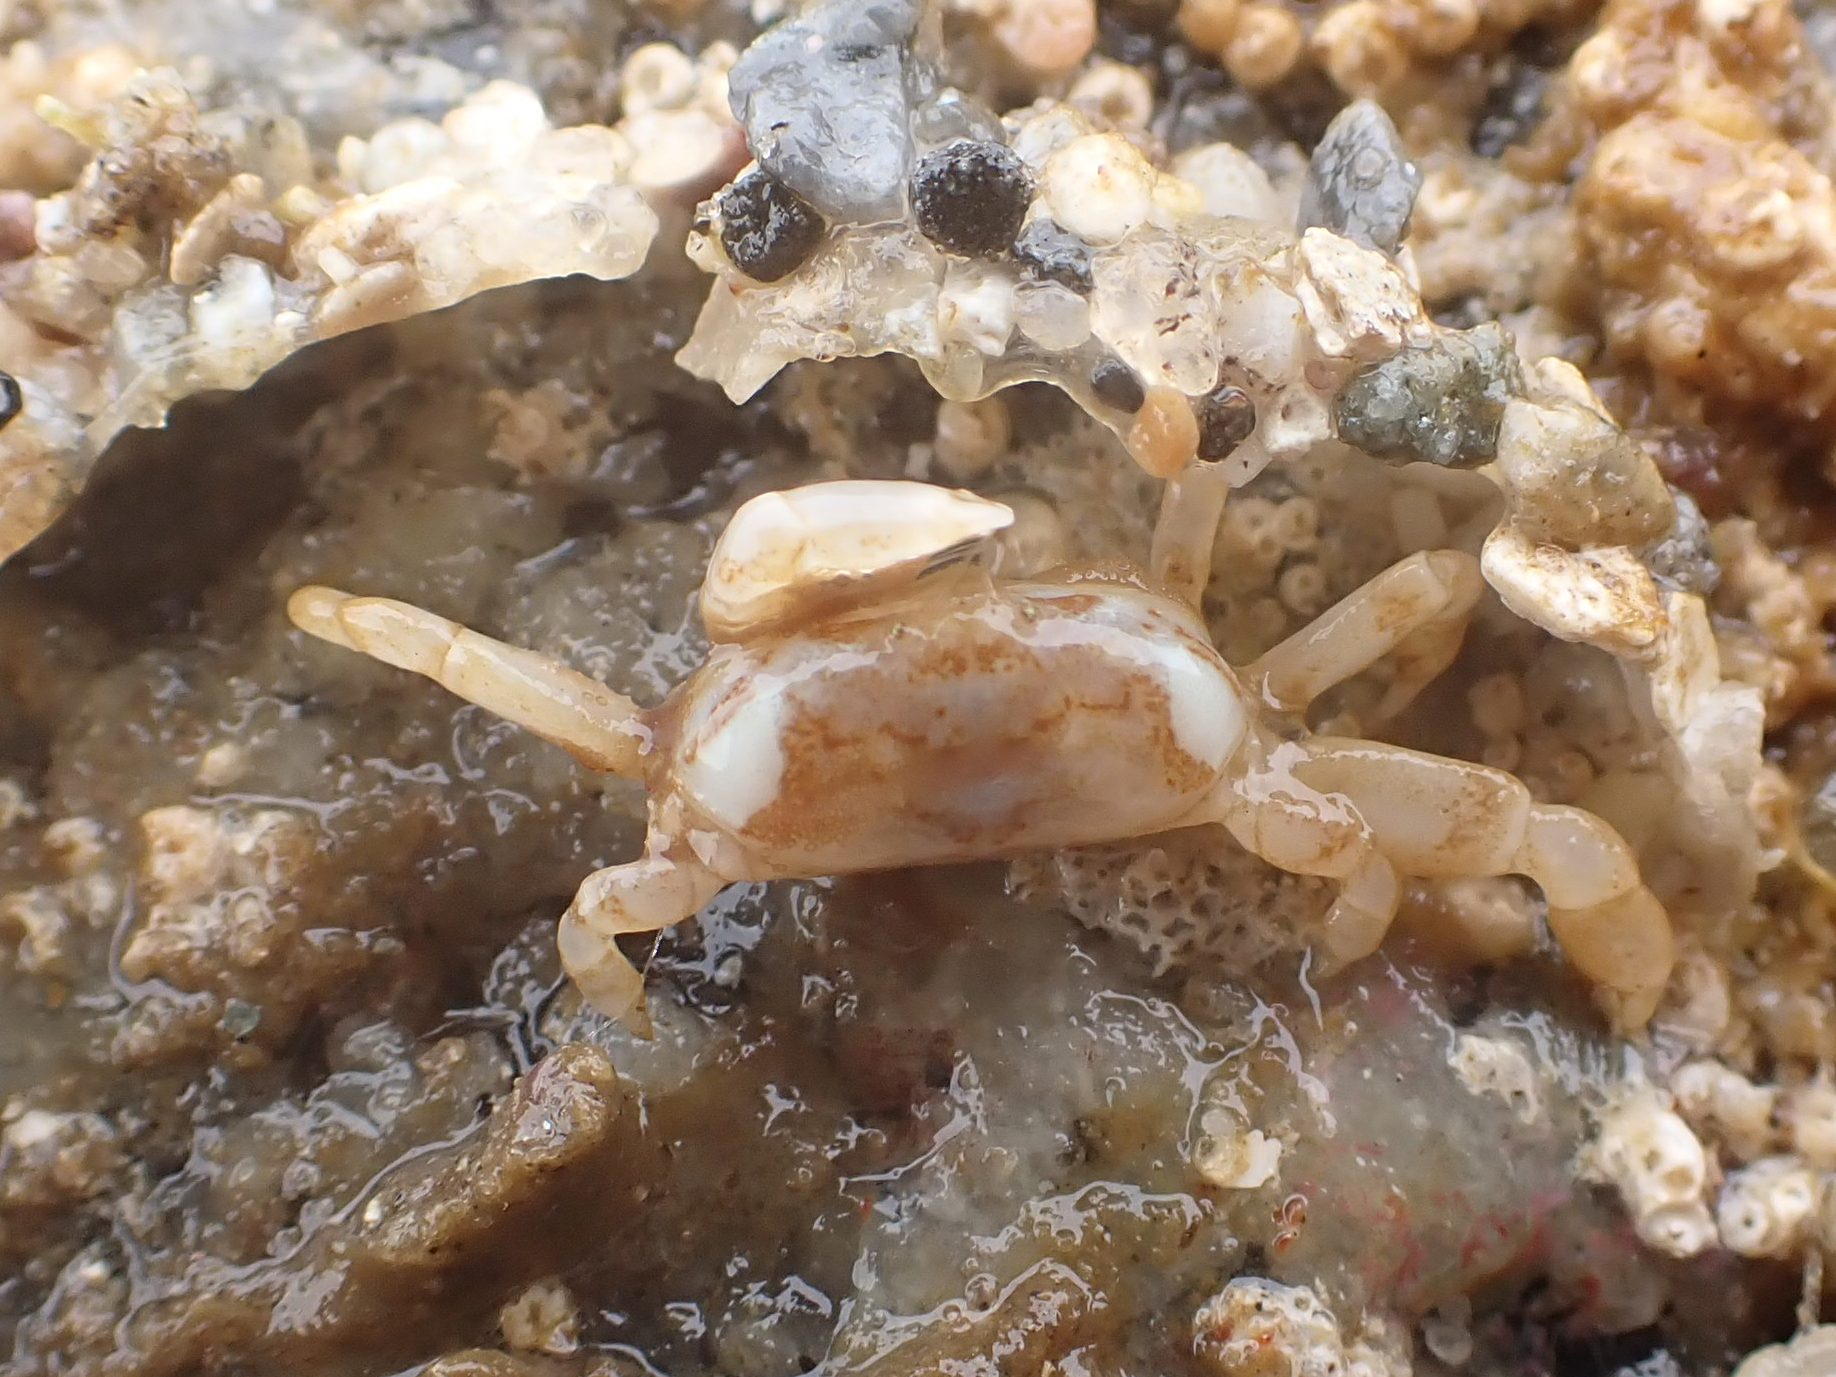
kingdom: Animalia
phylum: Arthropoda
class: Malacostraca
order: Decapoda
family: Pinnotheridae
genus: Scleroplax
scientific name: Scleroplax tubicola
